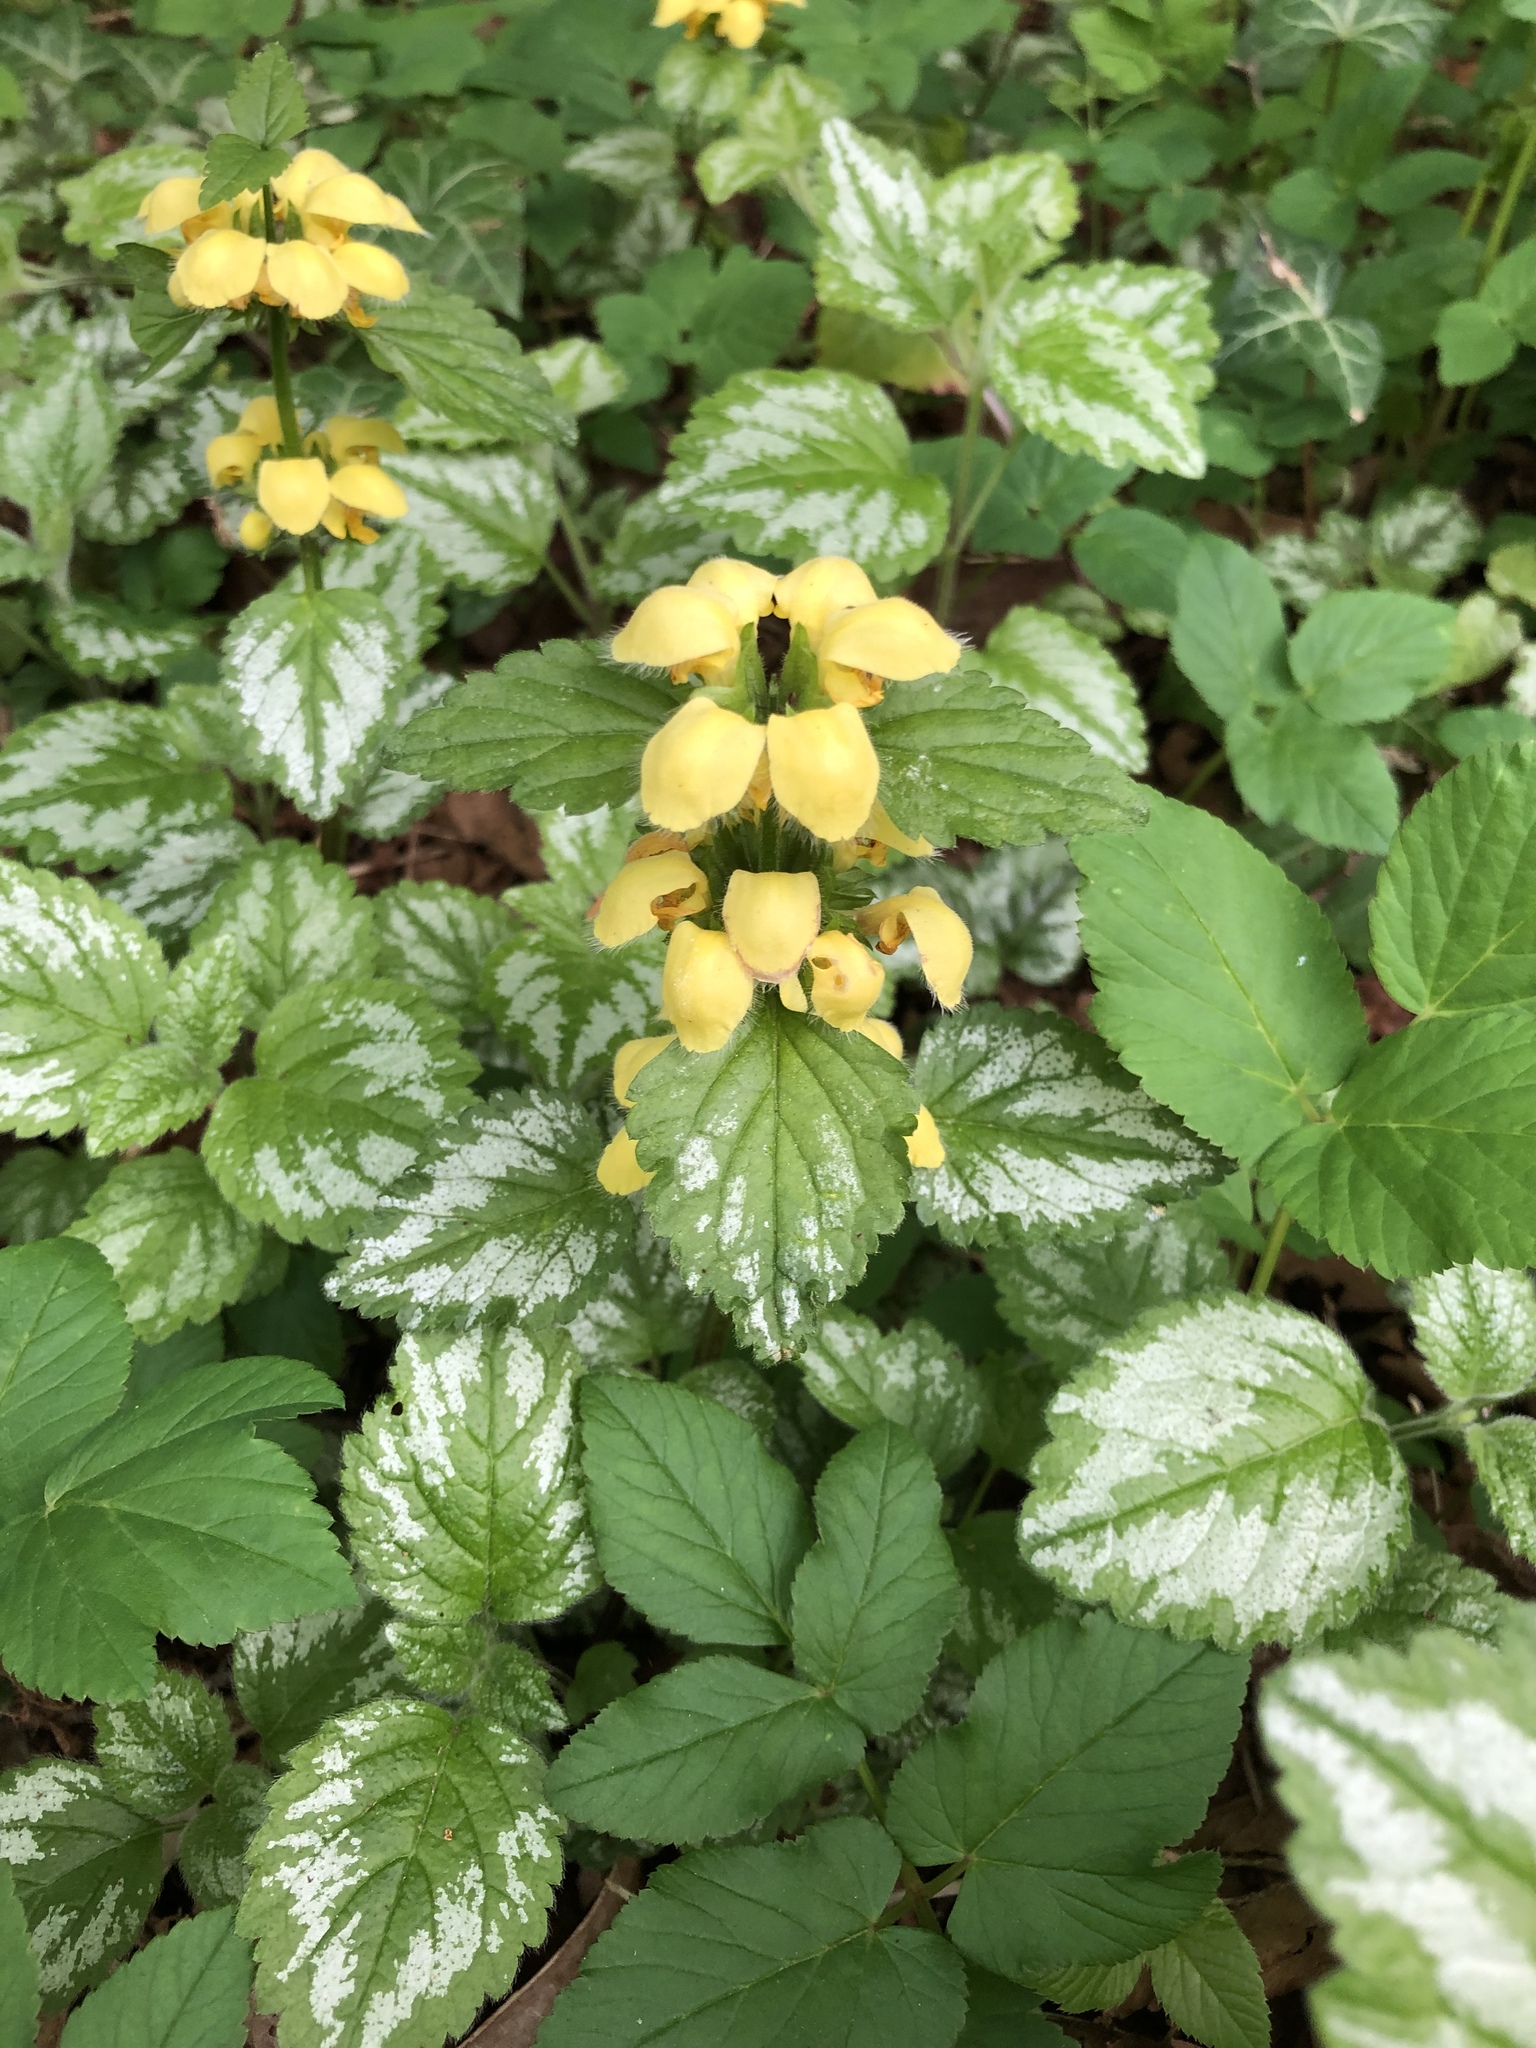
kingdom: Plantae
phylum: Tracheophyta
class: Magnoliopsida
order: Lamiales
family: Lamiaceae
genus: Lamium
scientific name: Lamium galeobdolon
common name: Yellow archangel
